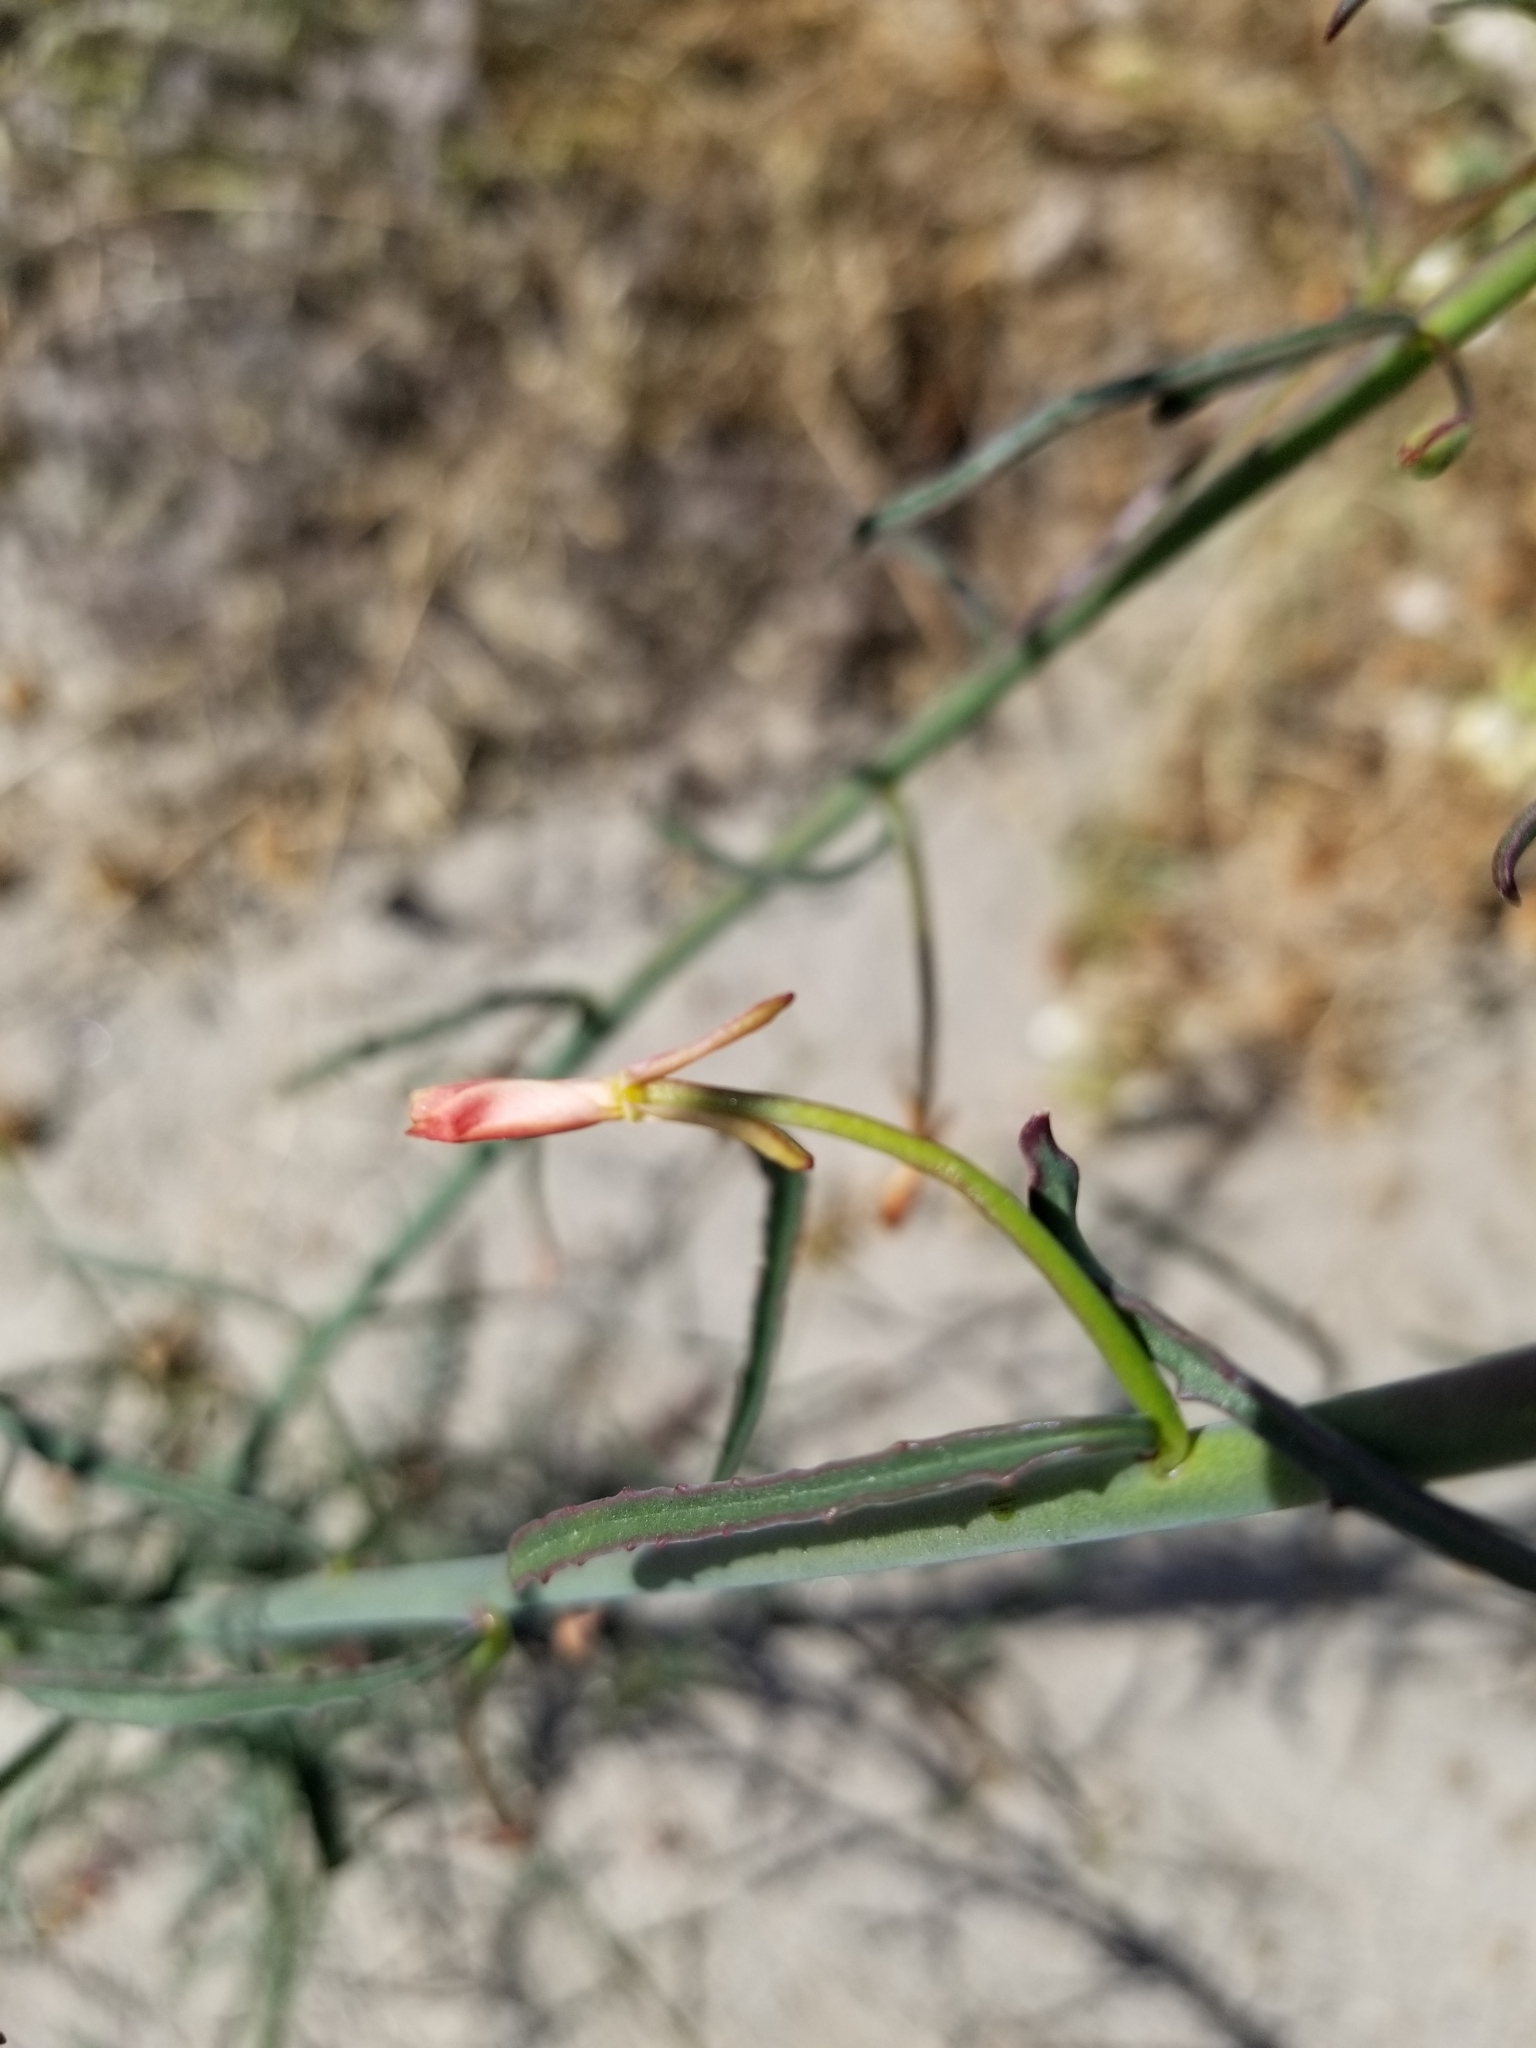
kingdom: Plantae
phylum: Tracheophyta
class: Magnoliopsida
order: Myrtales
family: Onagraceae
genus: Eulobus
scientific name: Eulobus californicus
